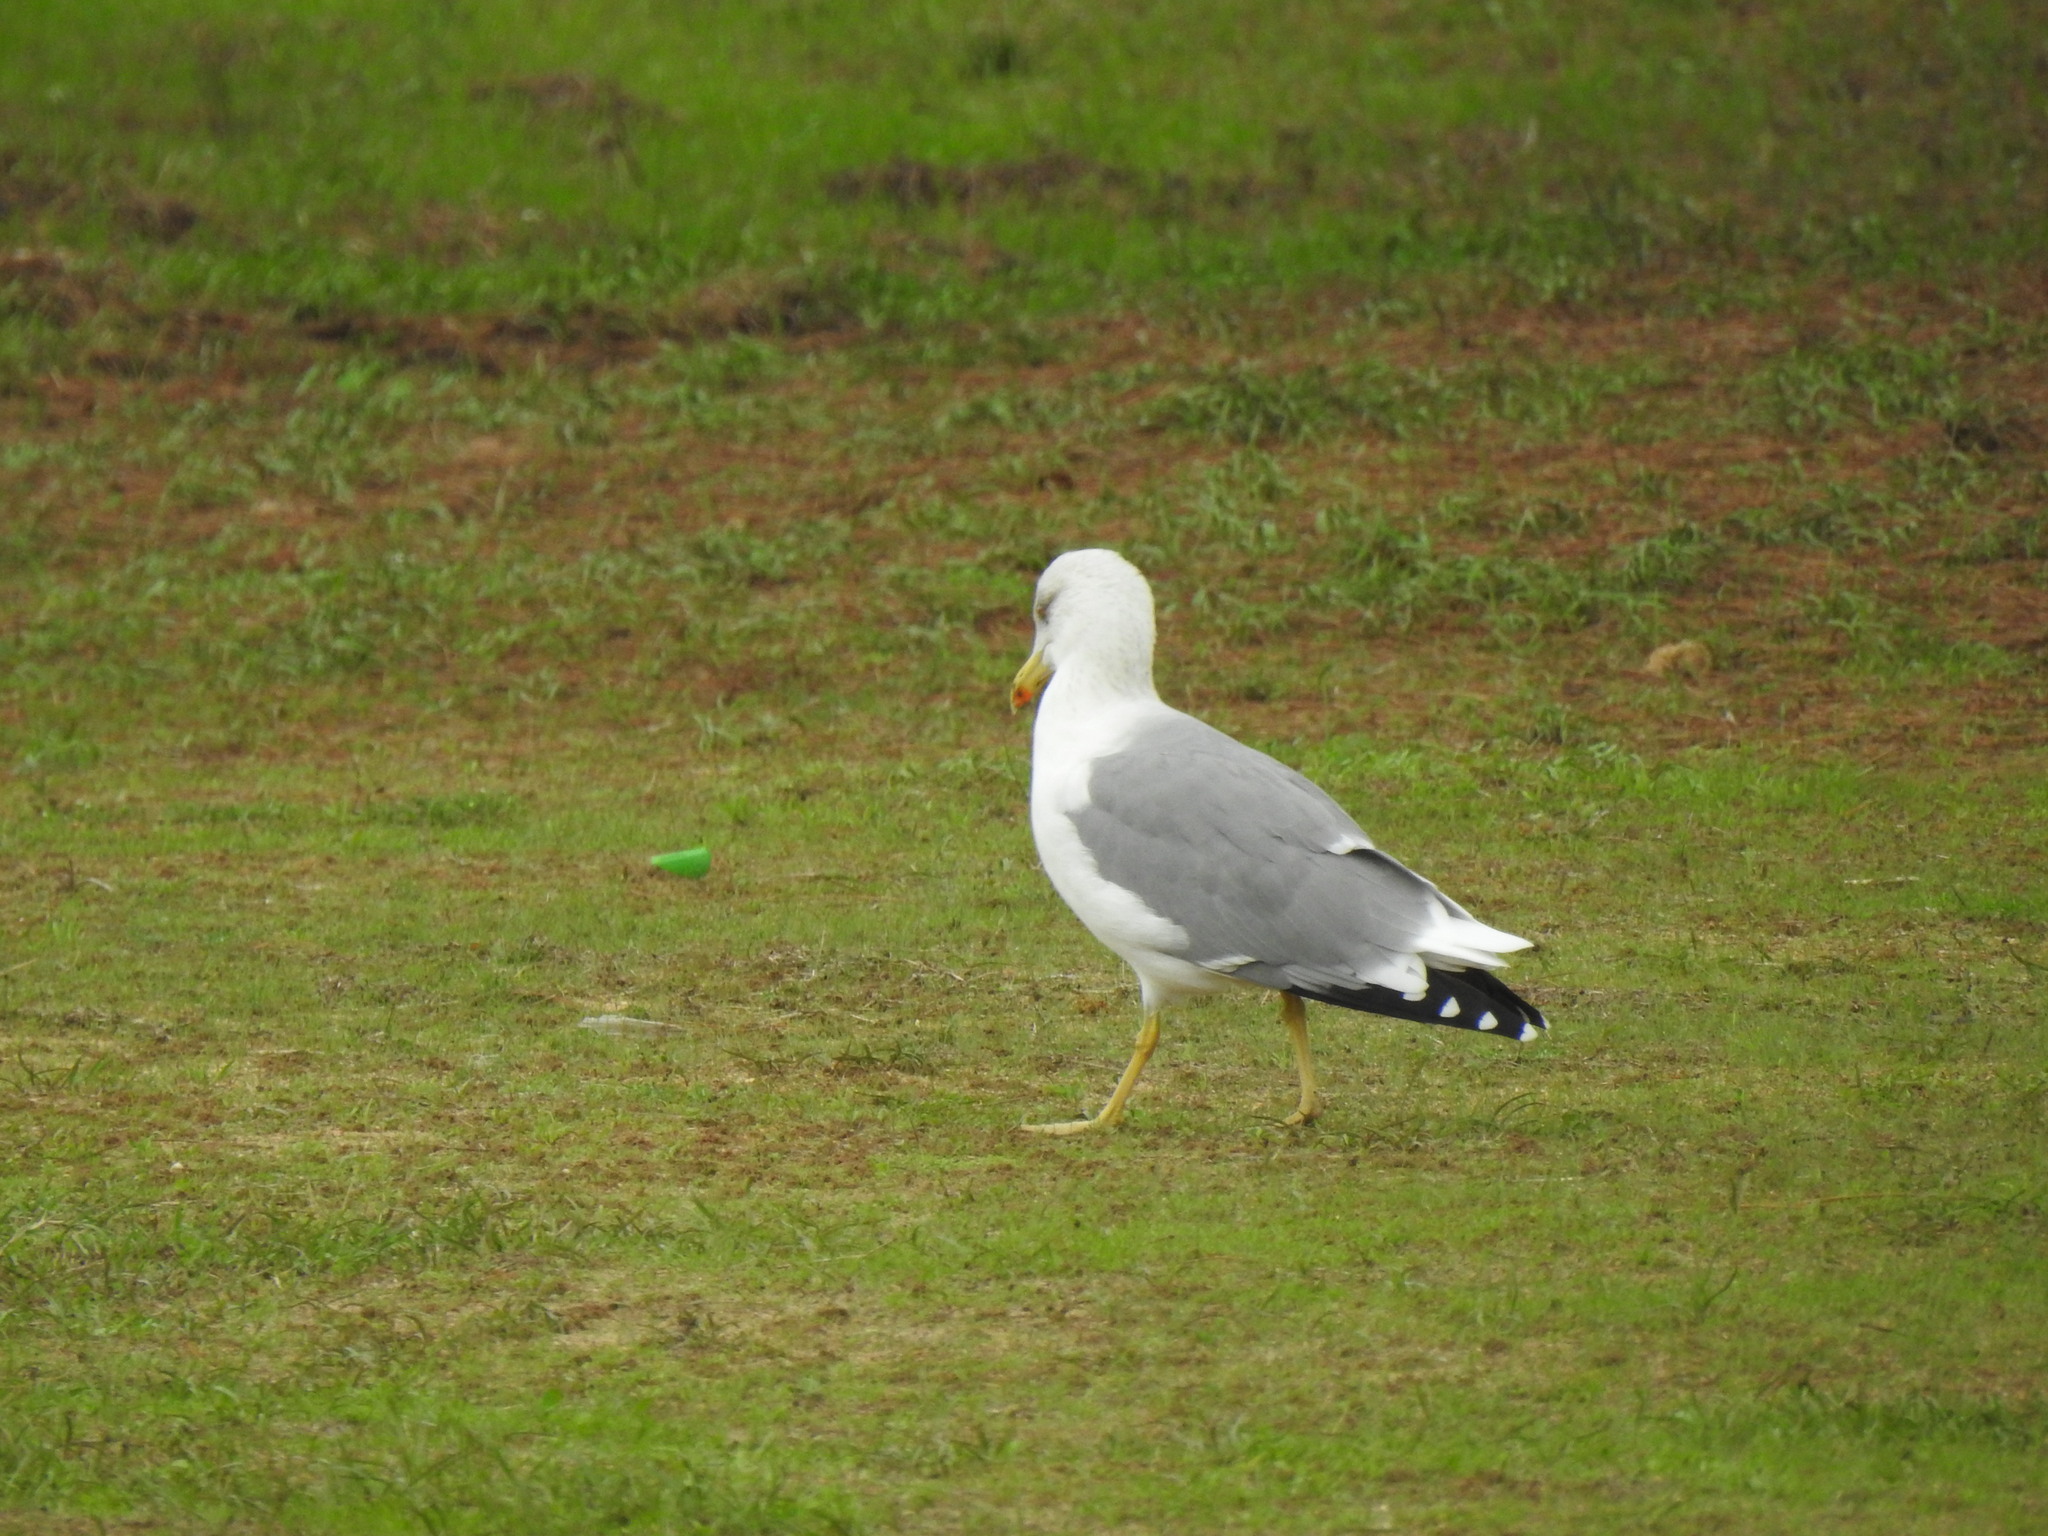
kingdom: Animalia
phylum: Chordata
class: Aves
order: Charadriiformes
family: Laridae
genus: Larus
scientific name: Larus michahellis
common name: Yellow-legged gull
